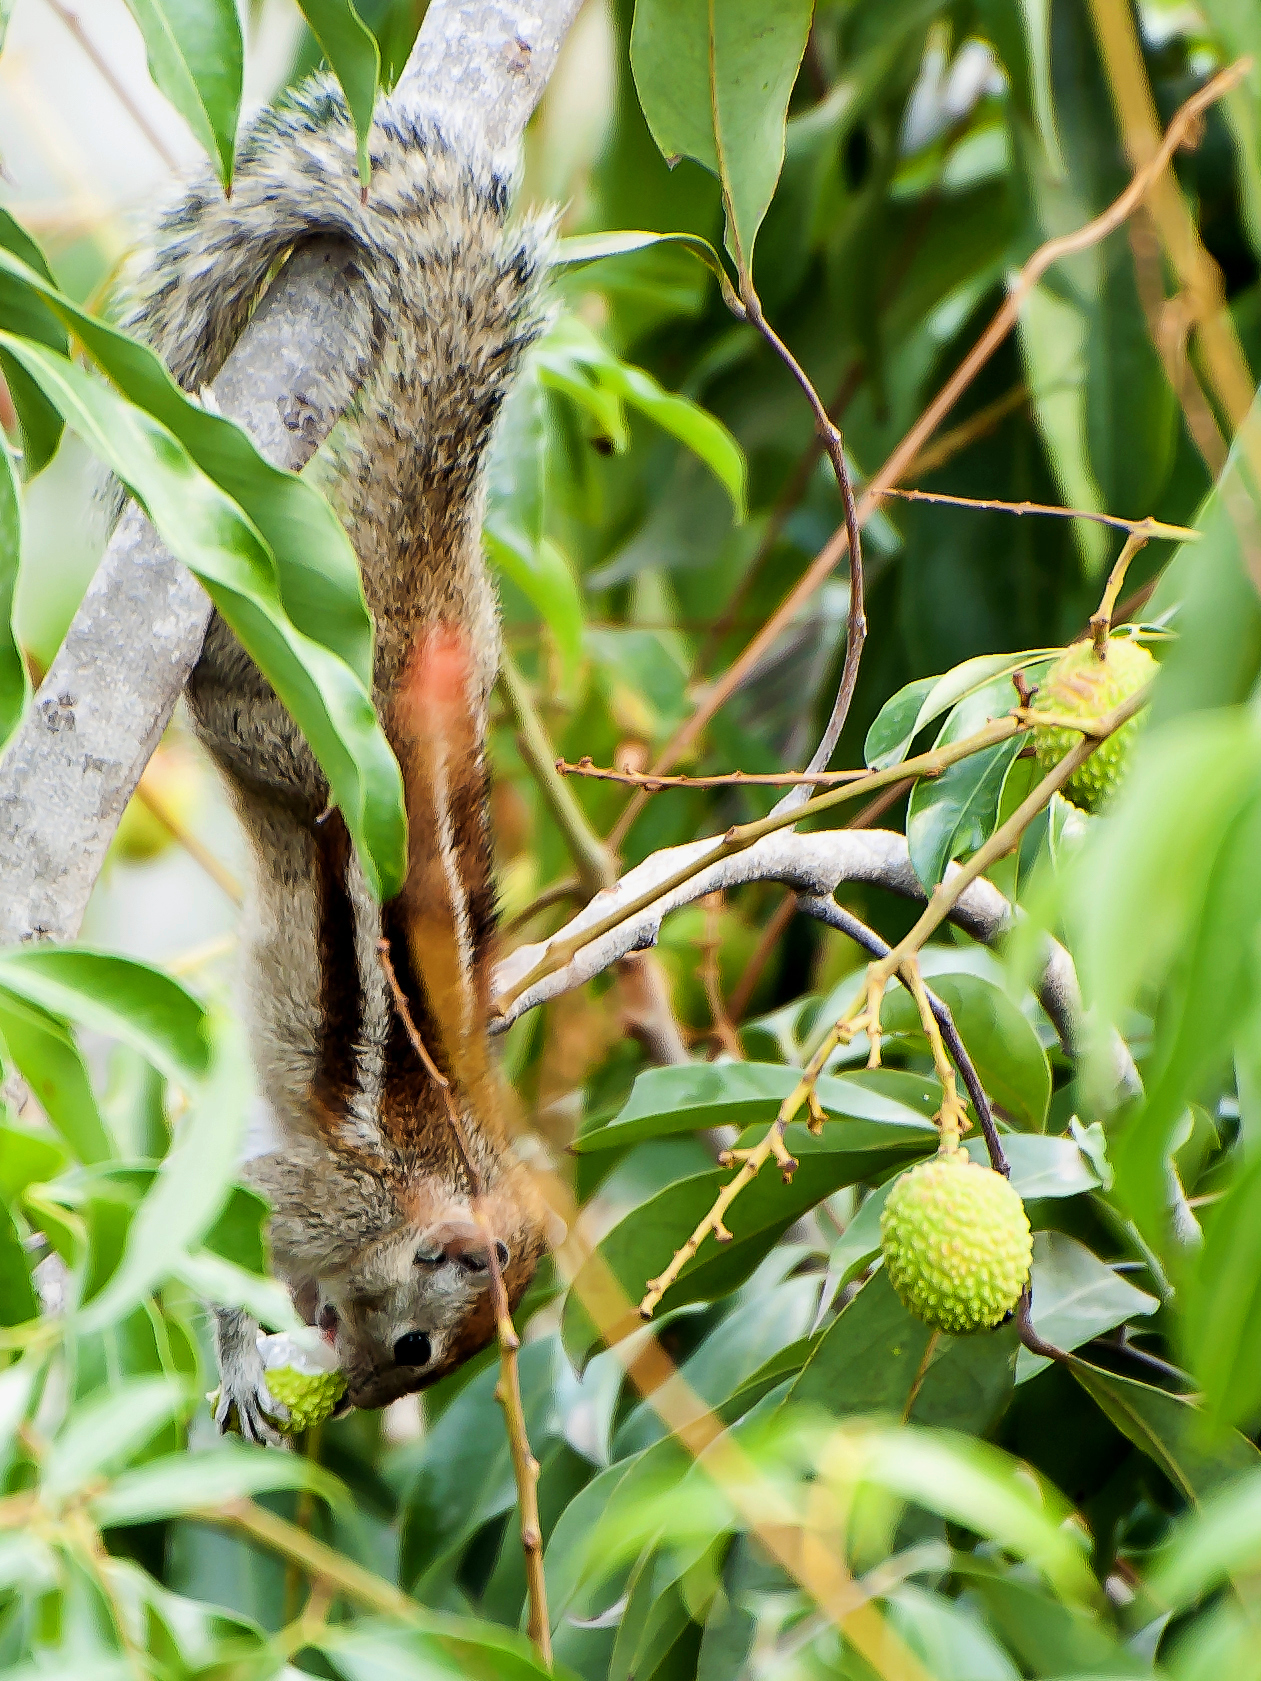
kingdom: Animalia
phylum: Chordata
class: Mammalia
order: Rodentia
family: Sciuridae
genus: Funambulus
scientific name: Funambulus palmarum
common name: Indian palm squirrel
